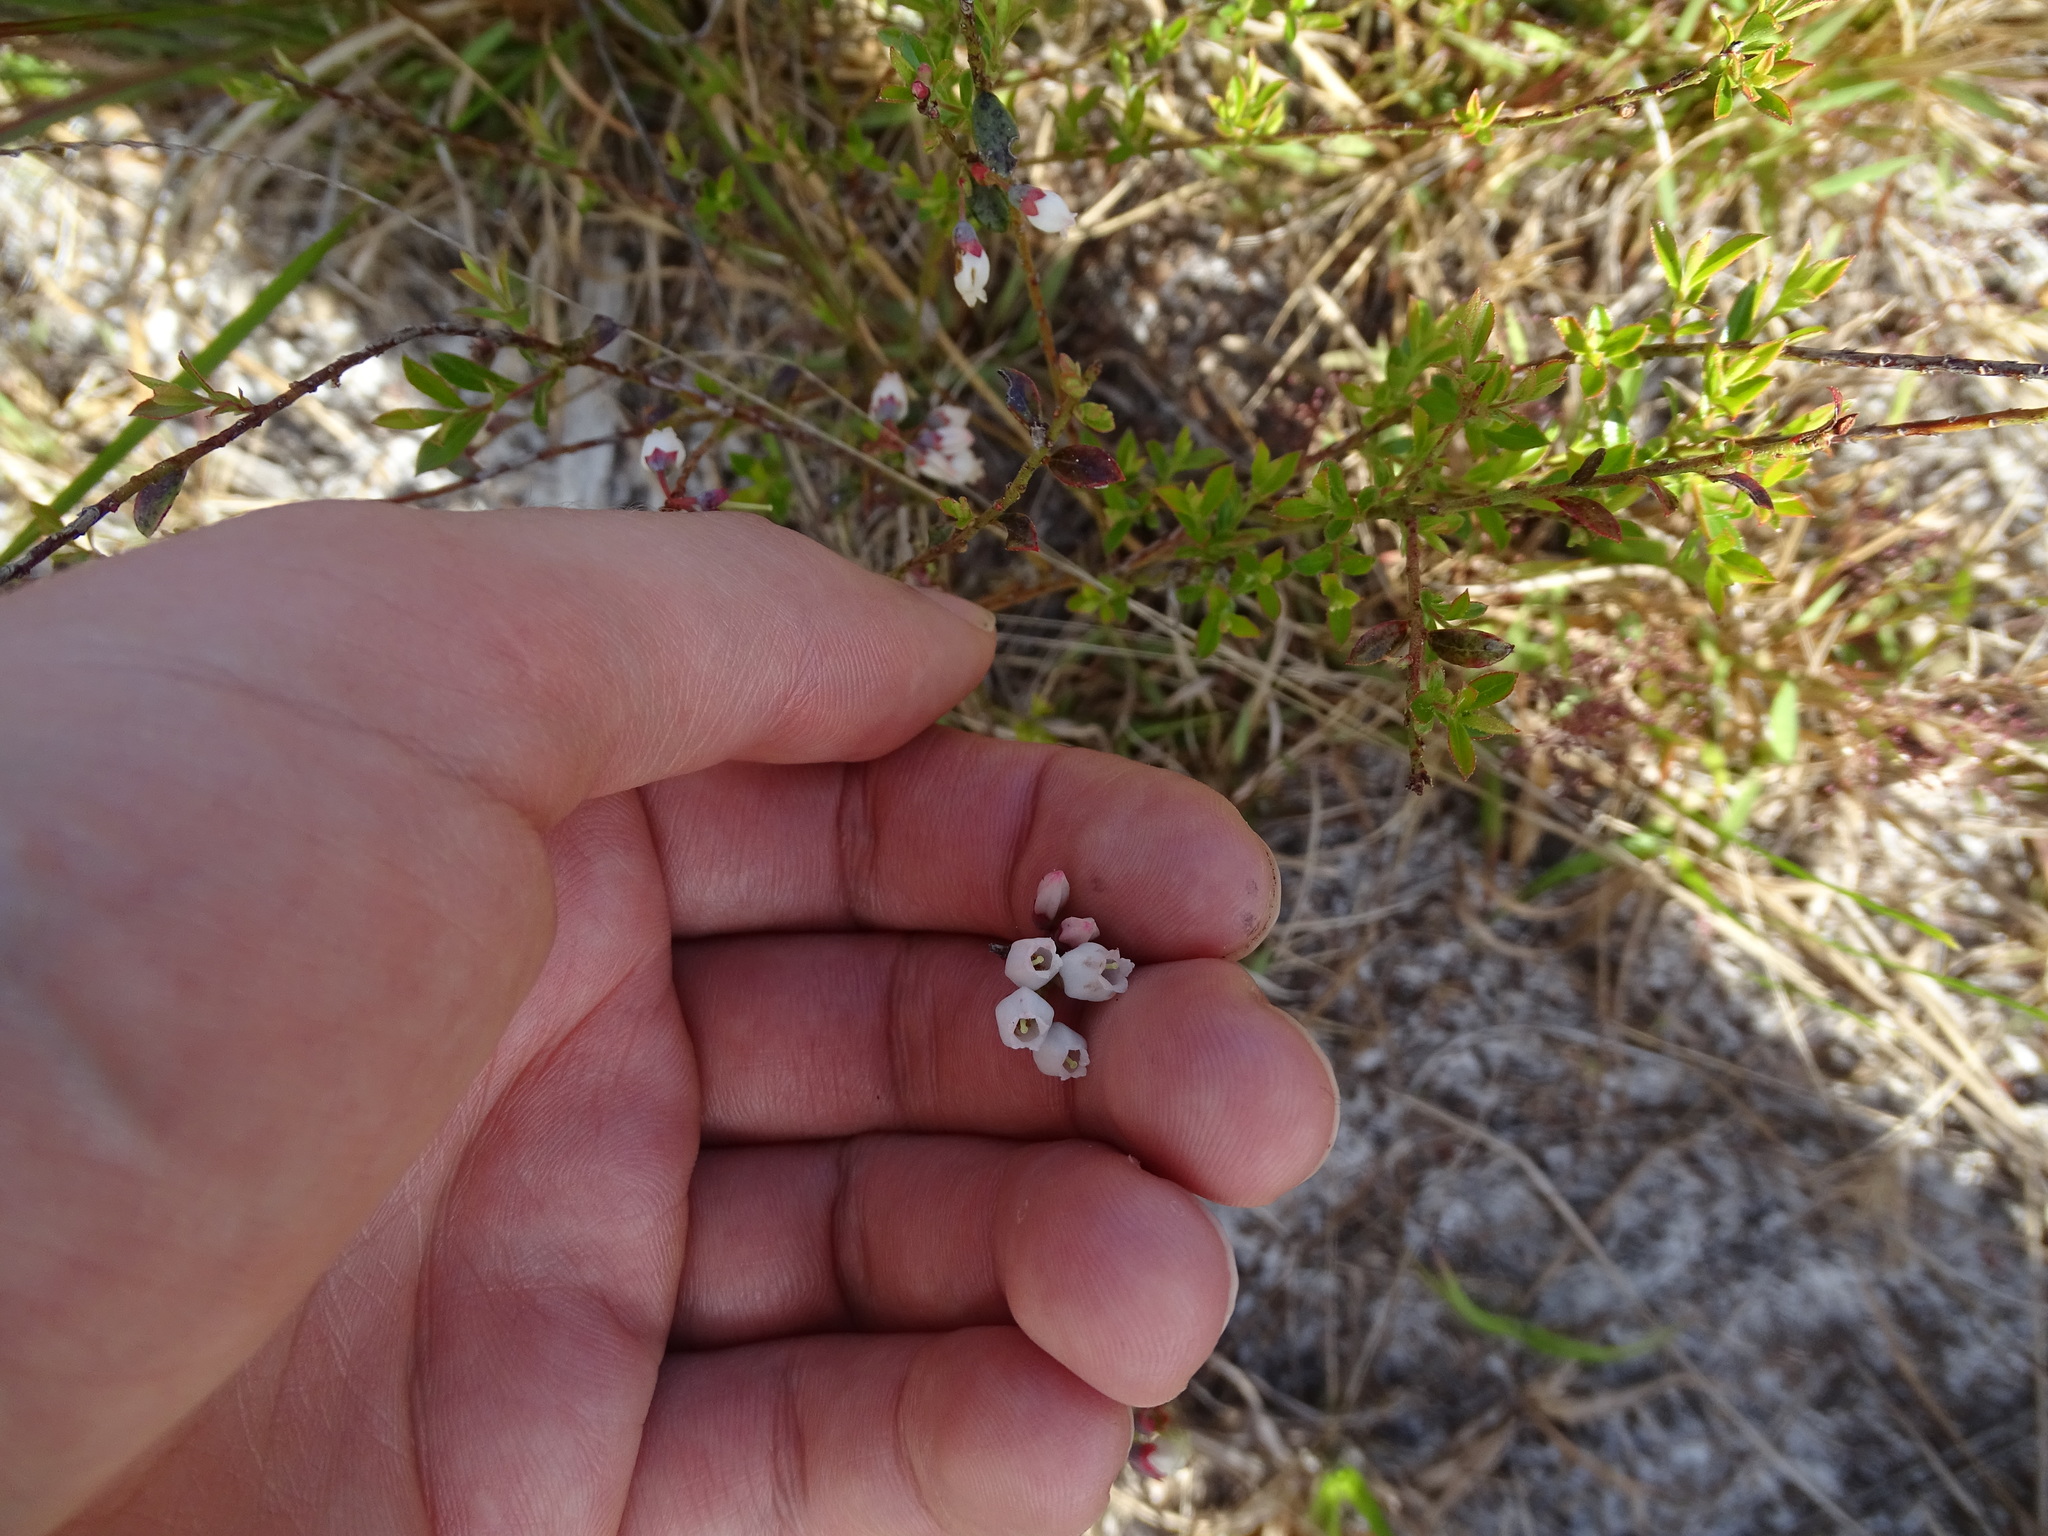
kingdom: Plantae
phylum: Tracheophyta
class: Magnoliopsida
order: Ericales
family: Ericaceae
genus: Vaccinium
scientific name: Vaccinium myrsinites
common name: Evergreen blueberry
